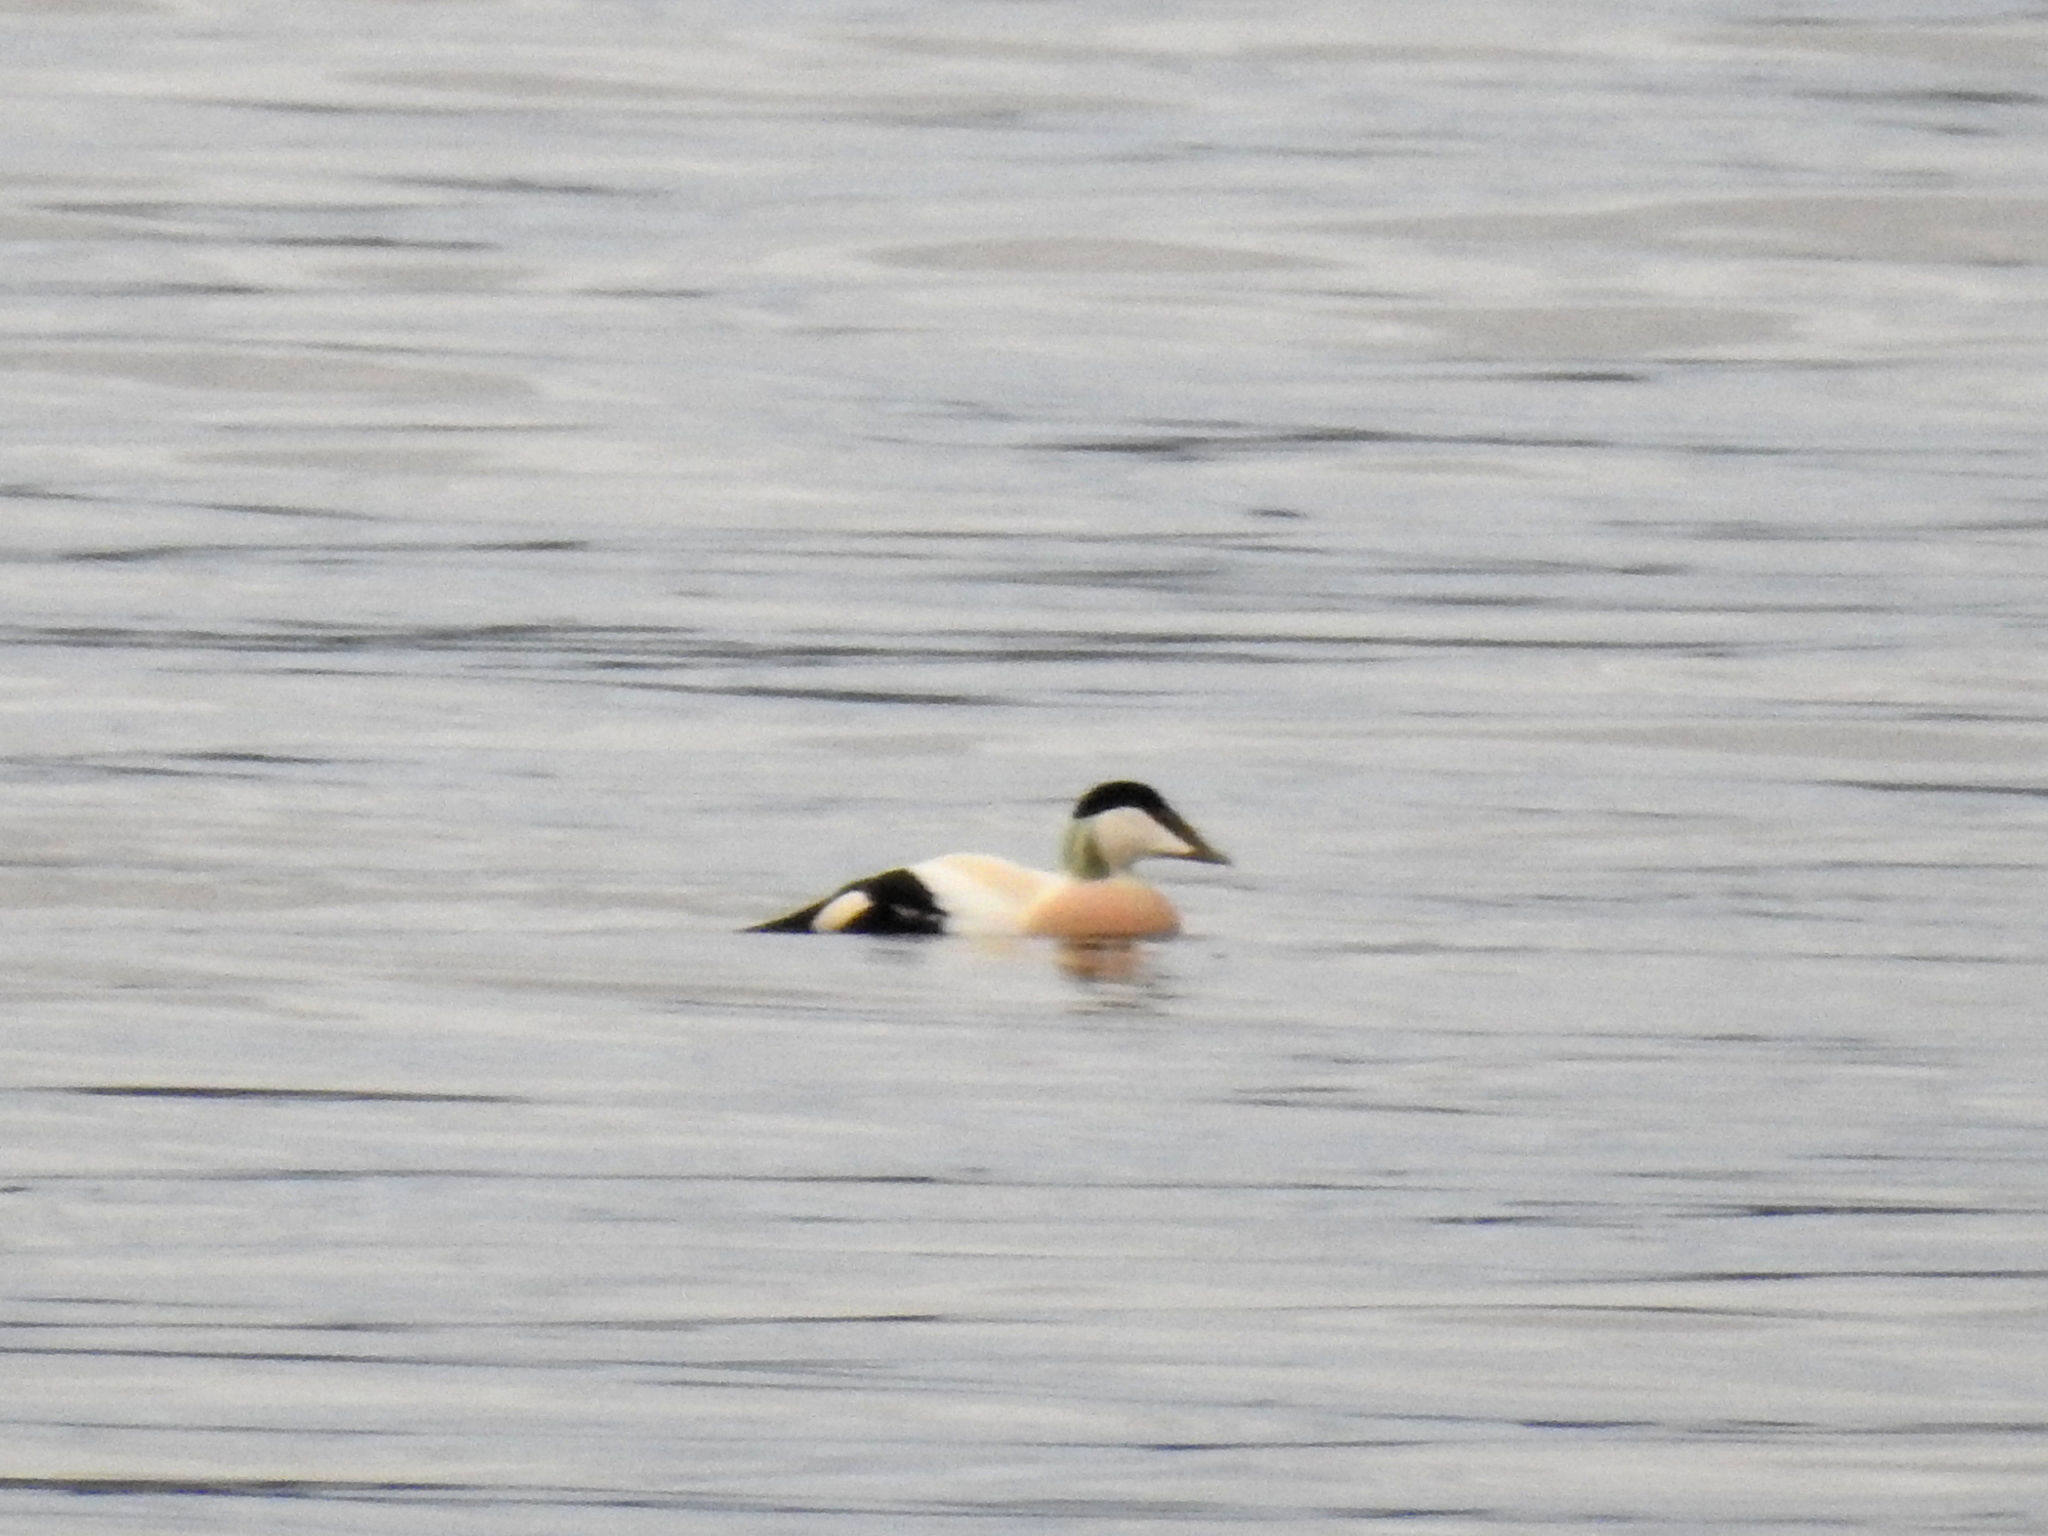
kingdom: Animalia
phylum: Chordata
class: Aves
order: Anseriformes
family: Anatidae
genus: Somateria
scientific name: Somateria mollissima
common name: Common eider
